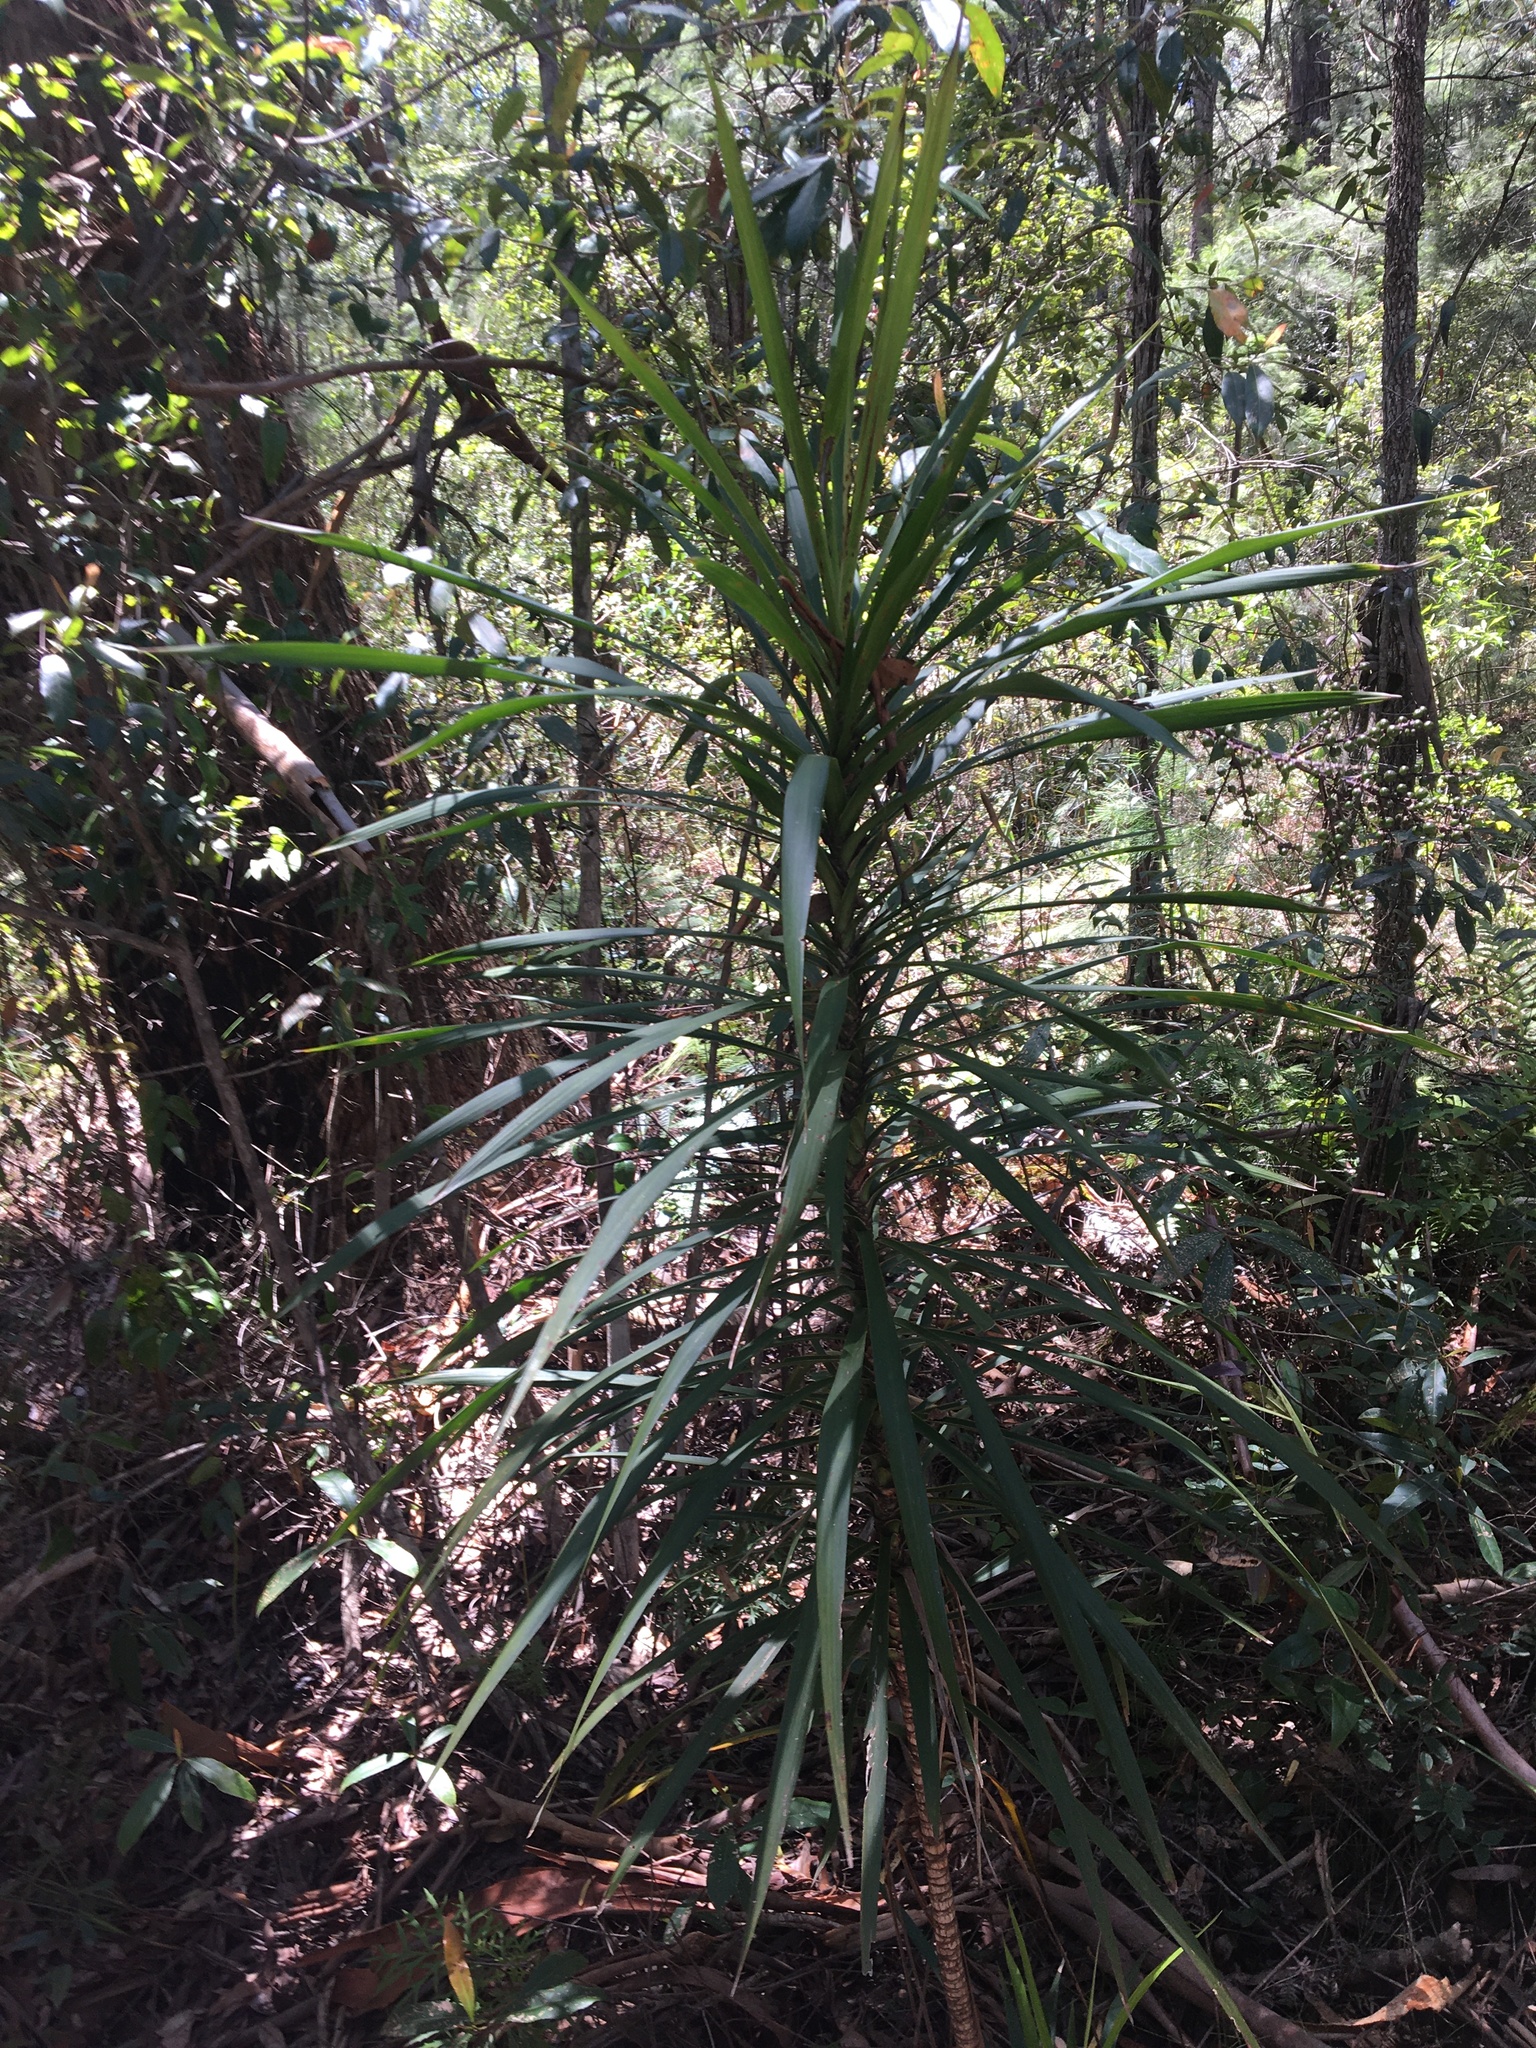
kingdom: Plantae
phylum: Tracheophyta
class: Liliopsida
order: Asparagales
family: Asparagaceae
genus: Cordyline
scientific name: Cordyline stricta
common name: Narrow-leaf palm-lily
